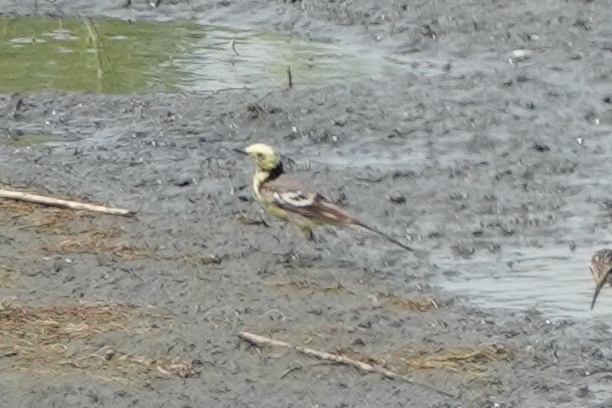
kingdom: Animalia
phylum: Chordata
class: Aves
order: Passeriformes
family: Motacillidae
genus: Motacilla
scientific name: Motacilla citreola
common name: Citrine wagtail
